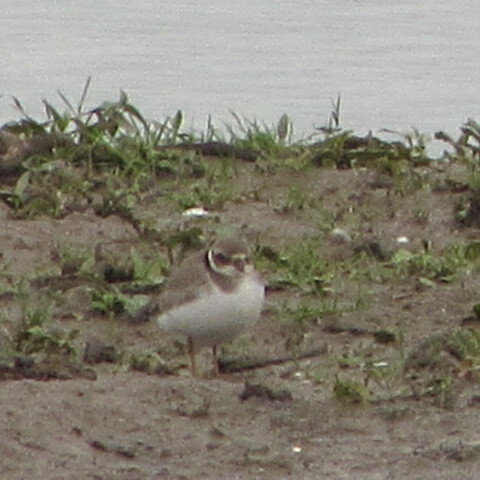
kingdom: Animalia
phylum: Chordata
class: Aves
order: Charadriiformes
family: Charadriidae
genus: Charadrius
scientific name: Charadrius hiaticula
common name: Common ringed plover
